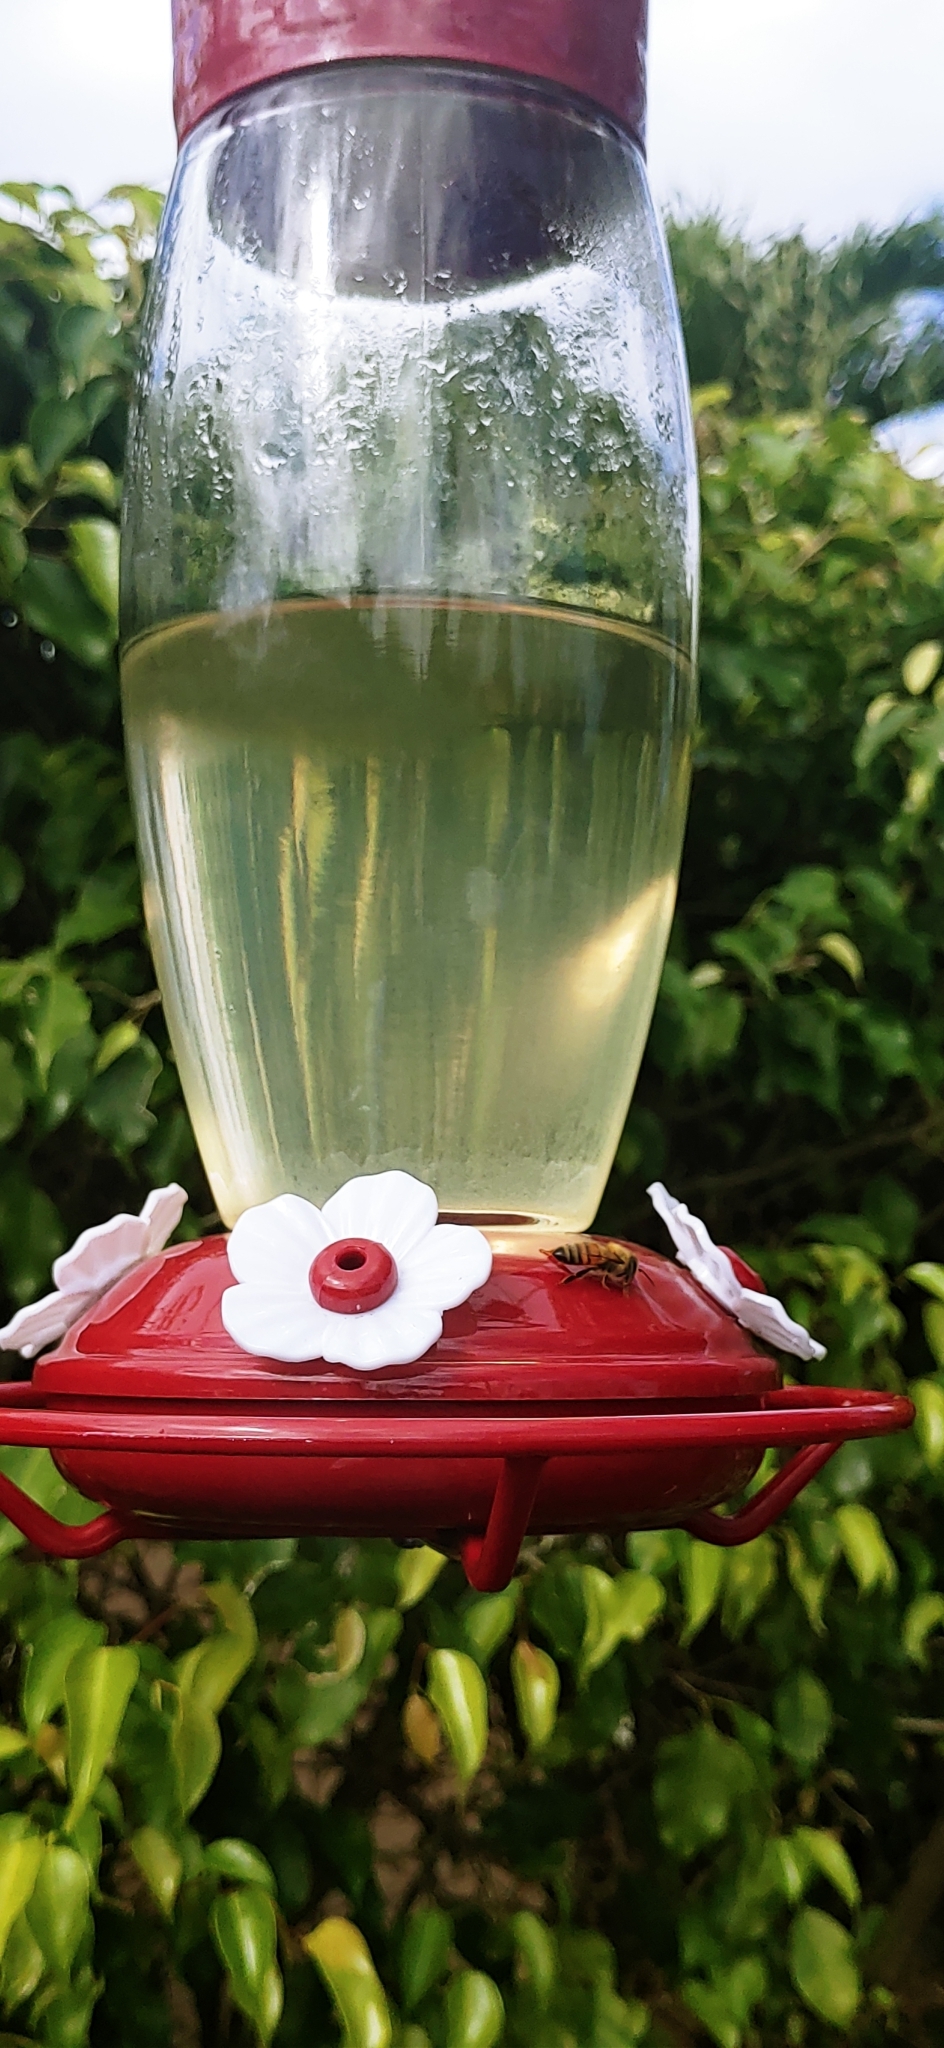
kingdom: Animalia
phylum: Arthropoda
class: Insecta
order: Hymenoptera
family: Apidae
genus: Apis
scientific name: Apis mellifera
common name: Honey bee
